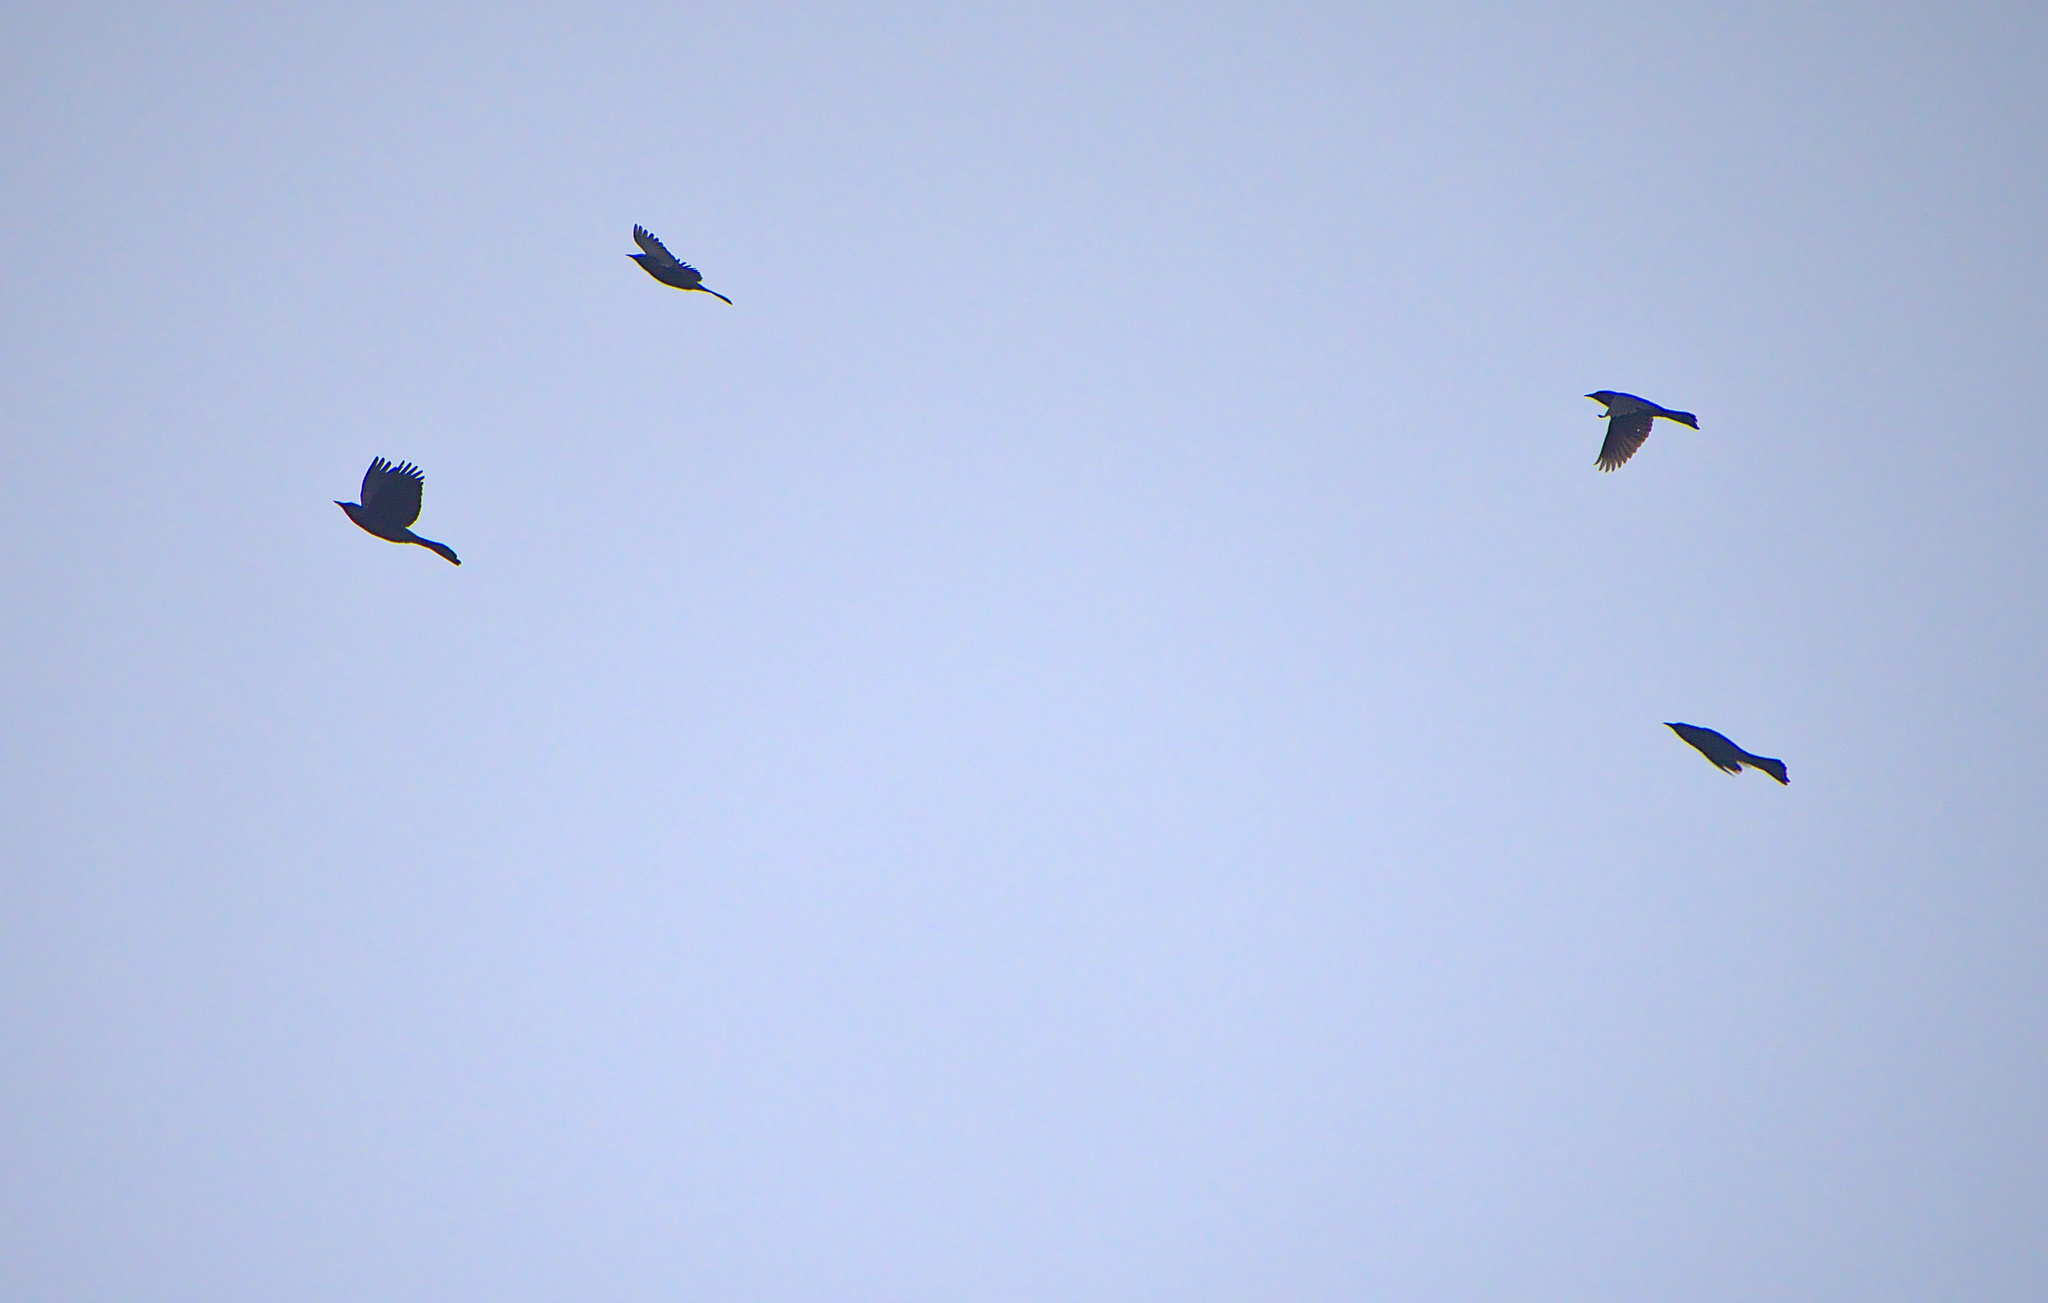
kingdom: Animalia
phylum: Chordata
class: Aves
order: Passeriformes
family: Icteridae
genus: Quiscalus
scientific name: Quiscalus quiscula
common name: Common grackle
